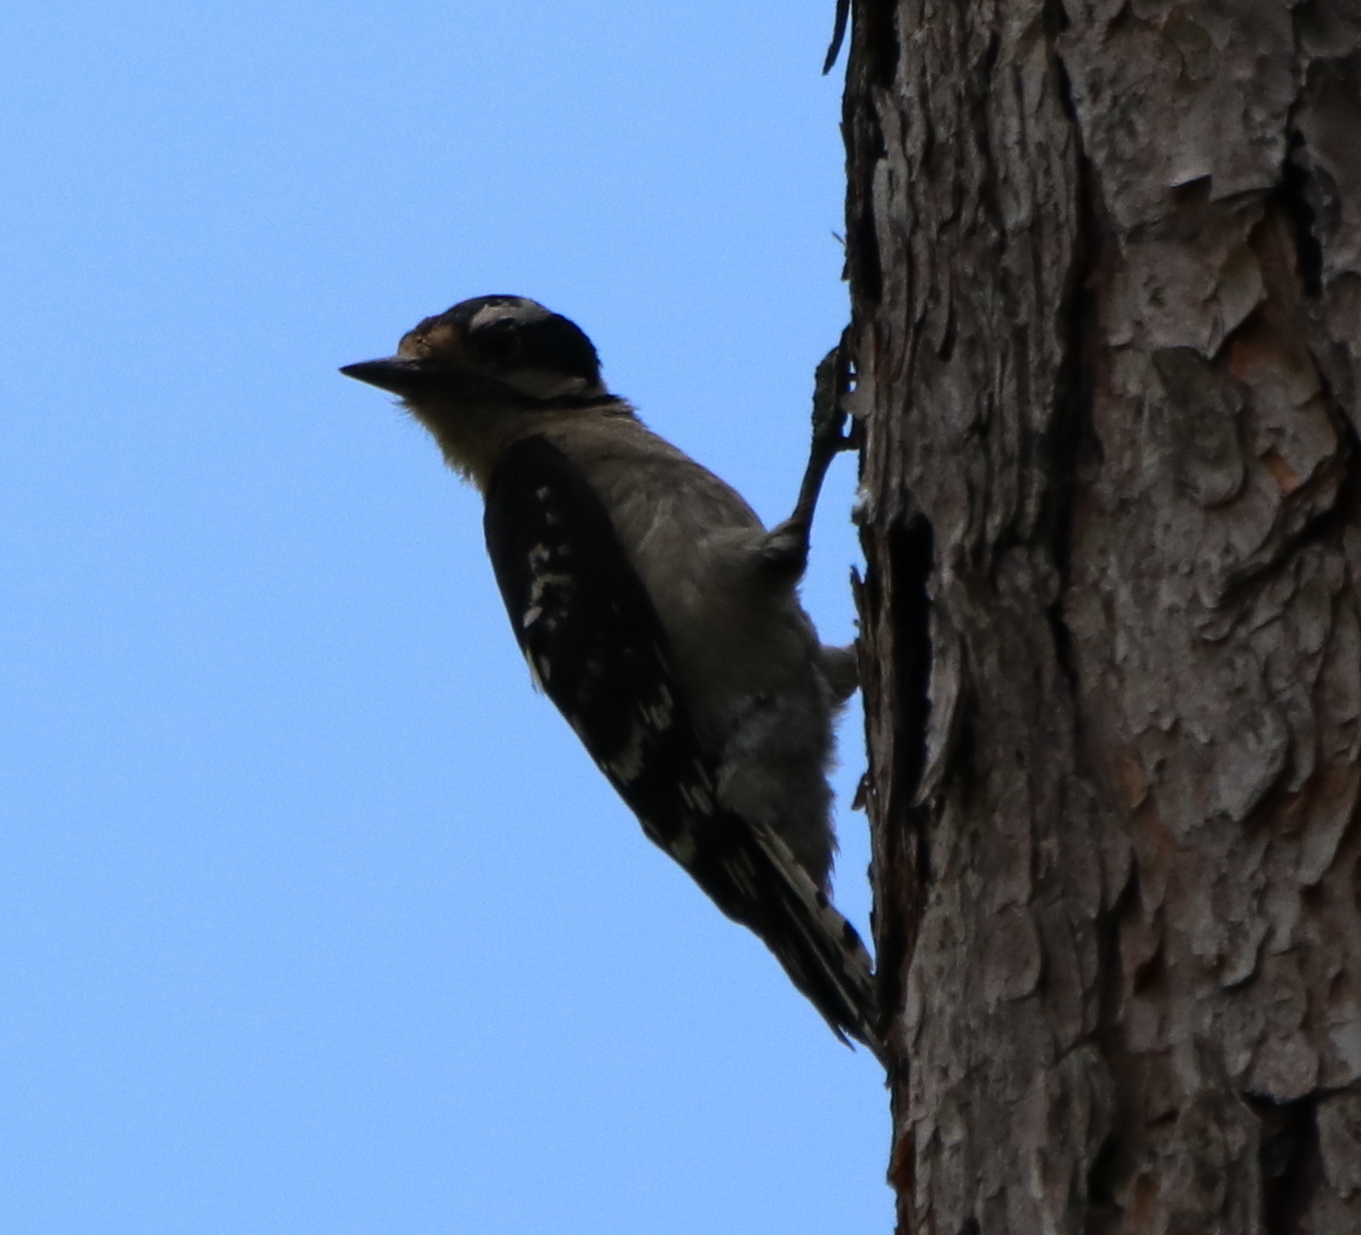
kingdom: Animalia
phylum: Chordata
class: Aves
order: Piciformes
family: Picidae
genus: Dryobates
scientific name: Dryobates pubescens
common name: Downy woodpecker
